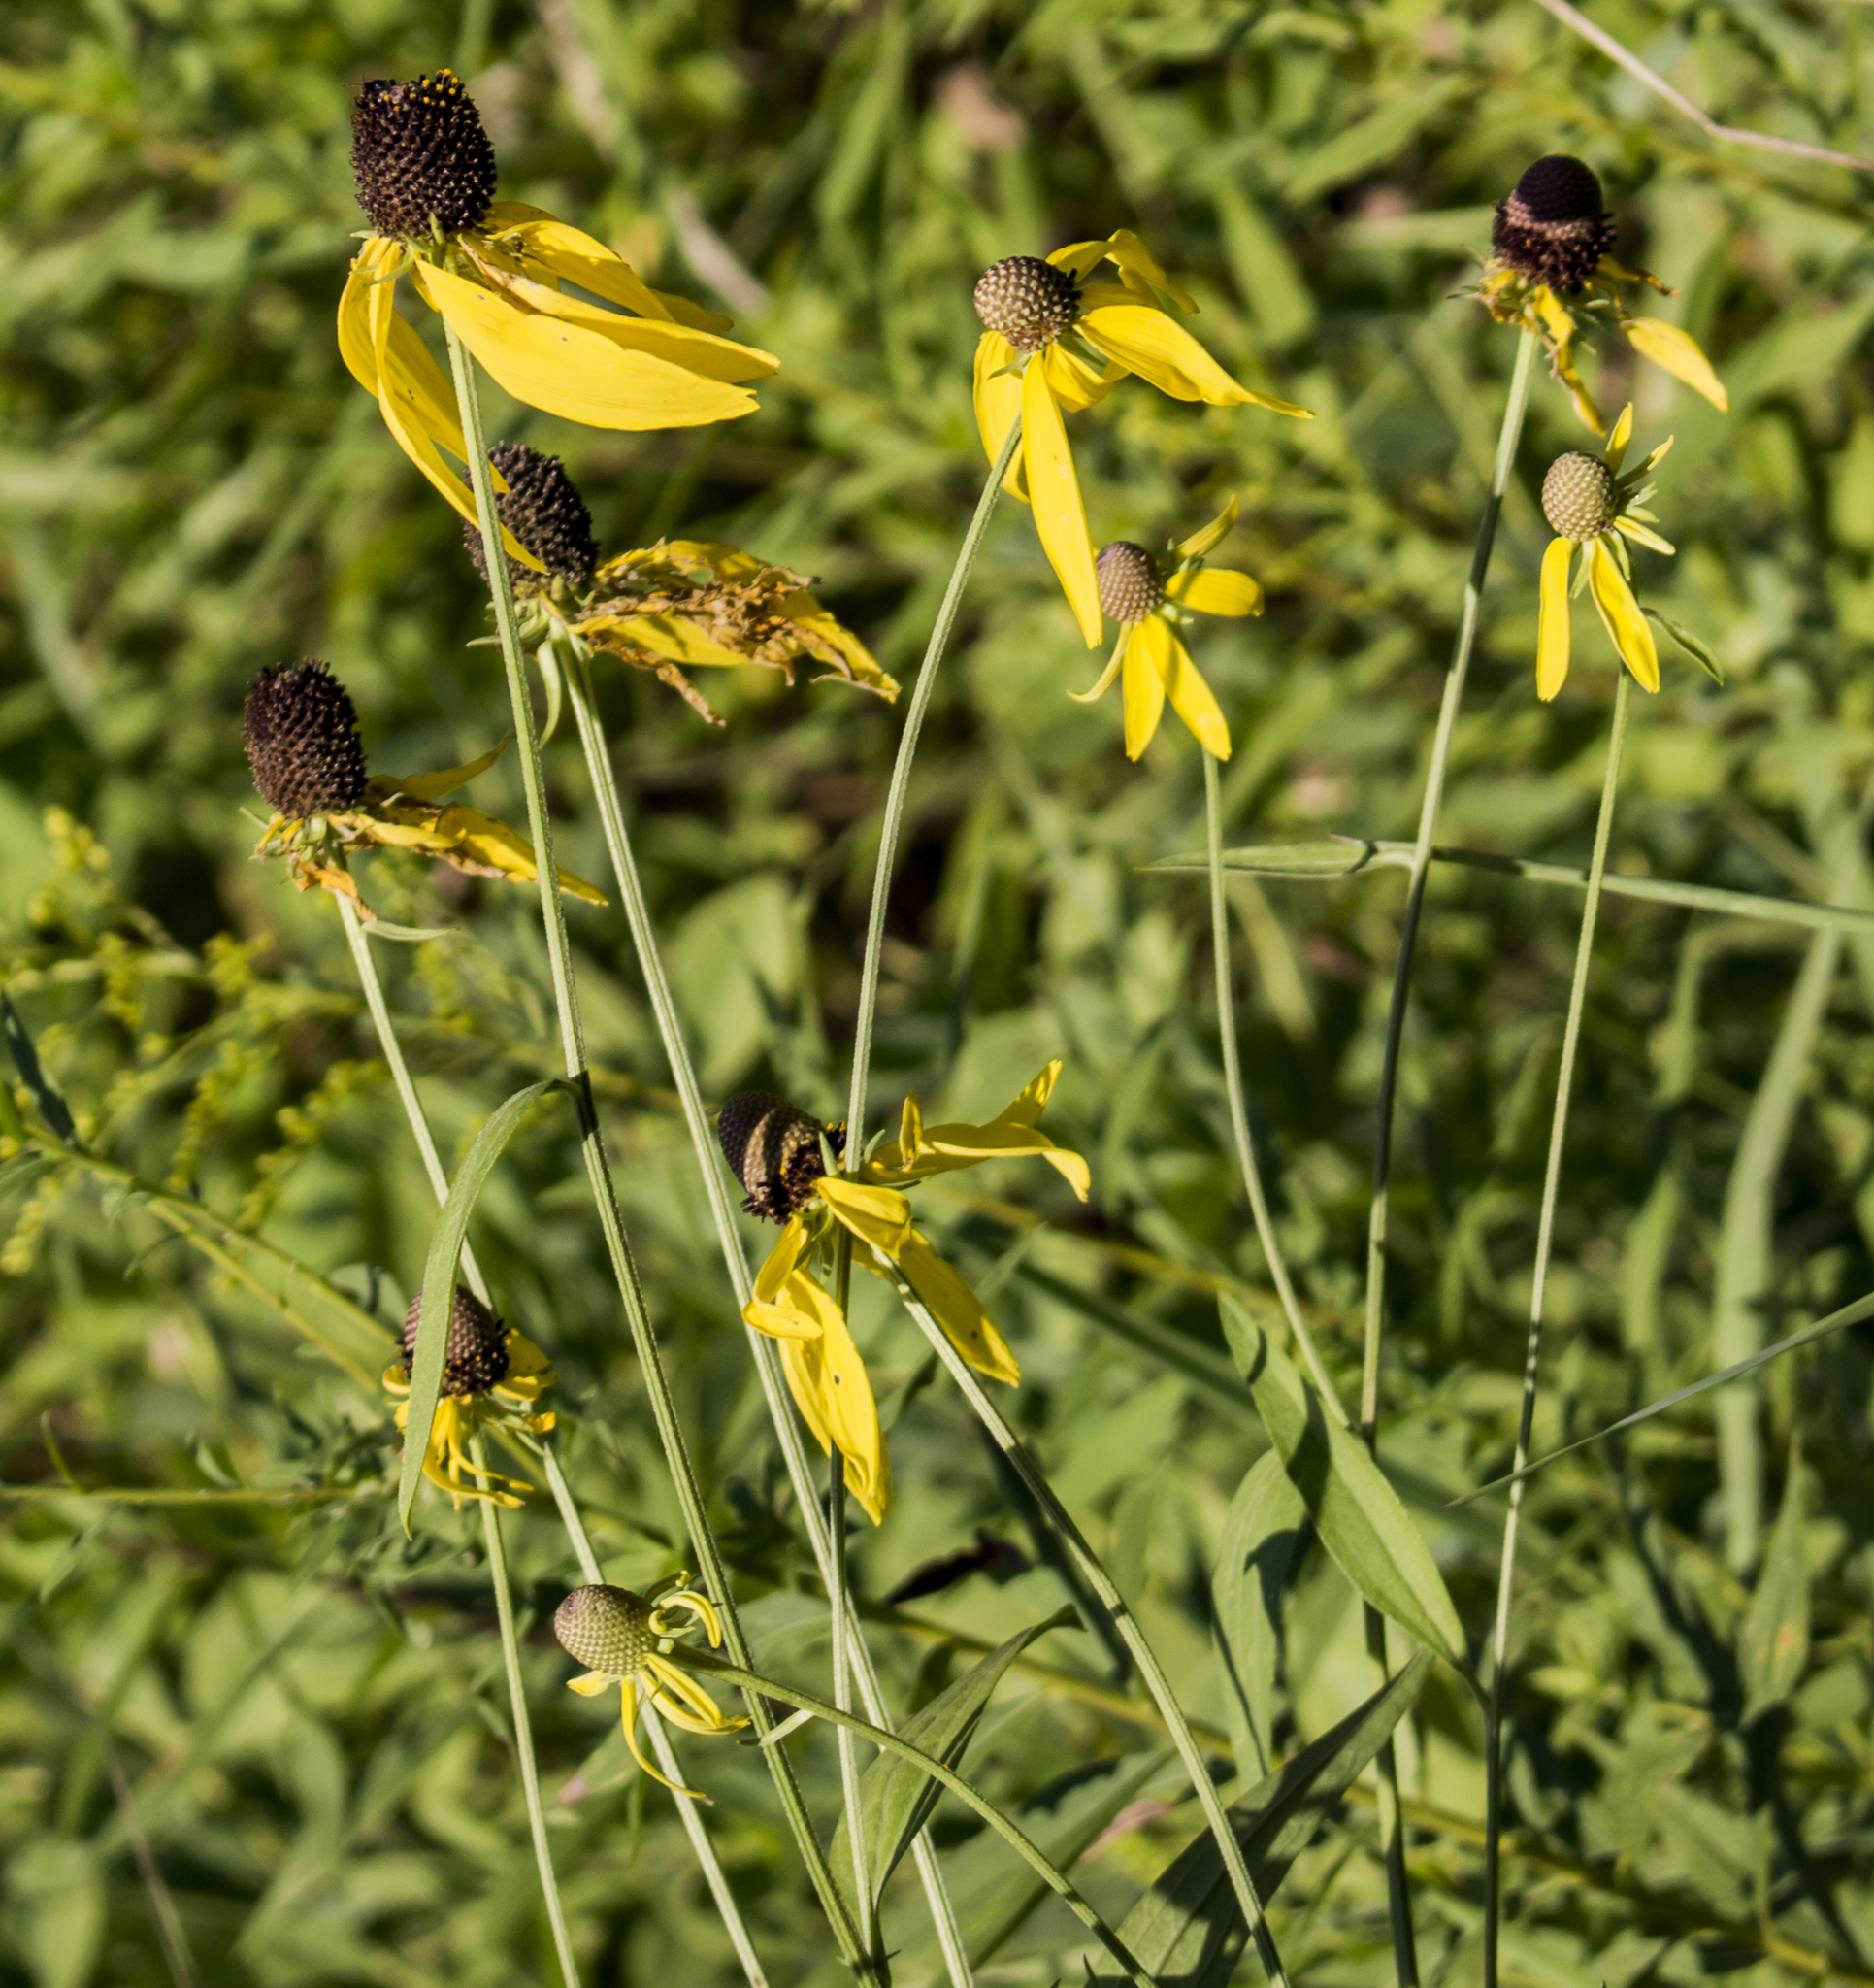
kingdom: Plantae
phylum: Tracheophyta
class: Magnoliopsida
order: Asterales
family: Asteraceae
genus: Ratibida
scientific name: Ratibida pinnata
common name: Drooping prairie-coneflower
